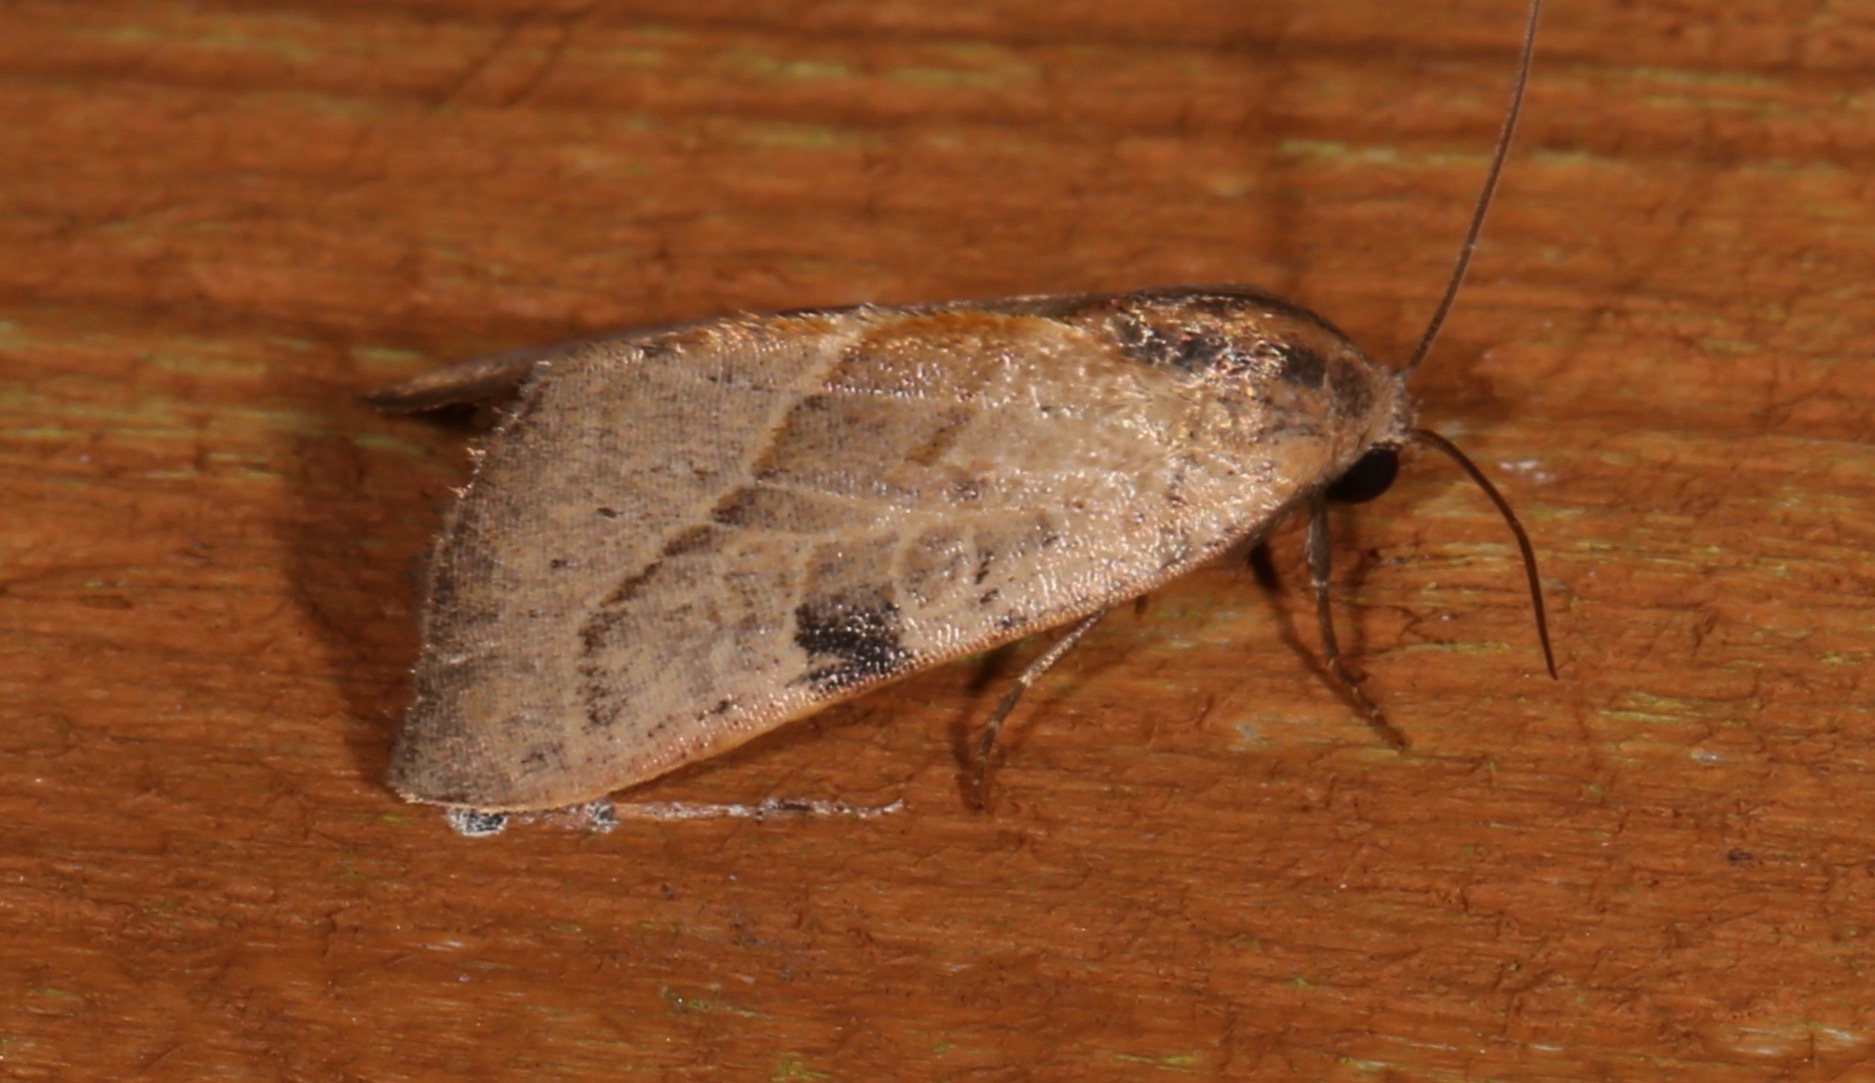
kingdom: Animalia
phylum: Arthropoda
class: Insecta
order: Lepidoptera
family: Noctuidae
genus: Galgula
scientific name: Galgula partita
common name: Wedgeling
